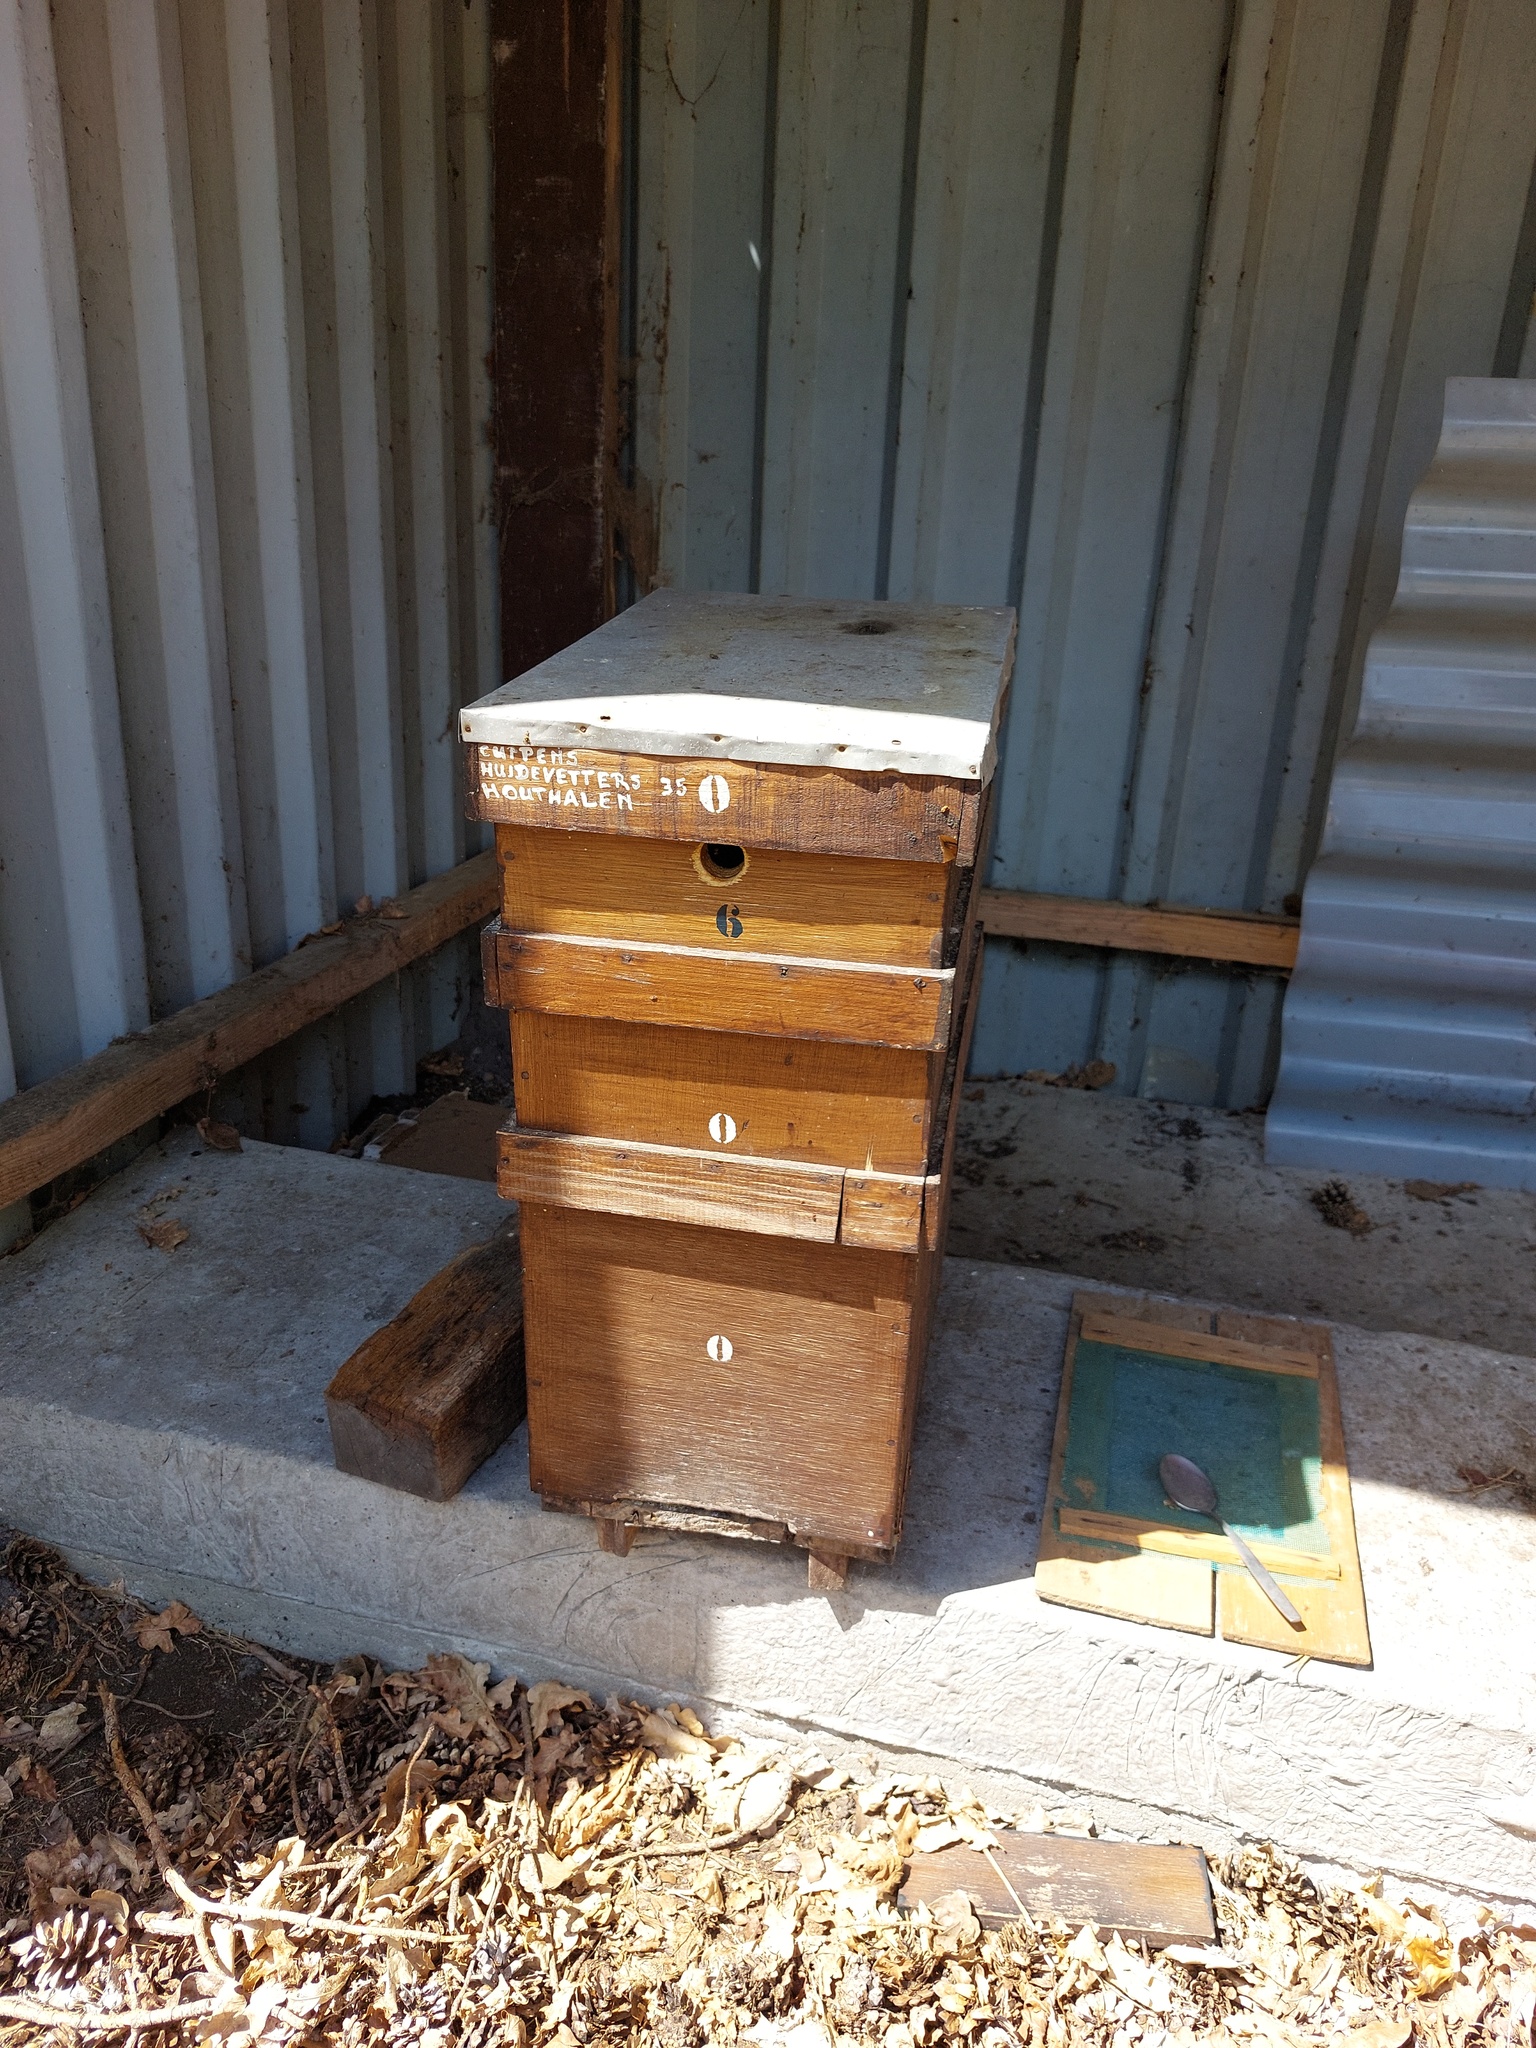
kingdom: Animalia
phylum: Arthropoda
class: Insecta
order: Hymenoptera
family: Vespidae
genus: Vespa
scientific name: Vespa velutina
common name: Asian hornet
